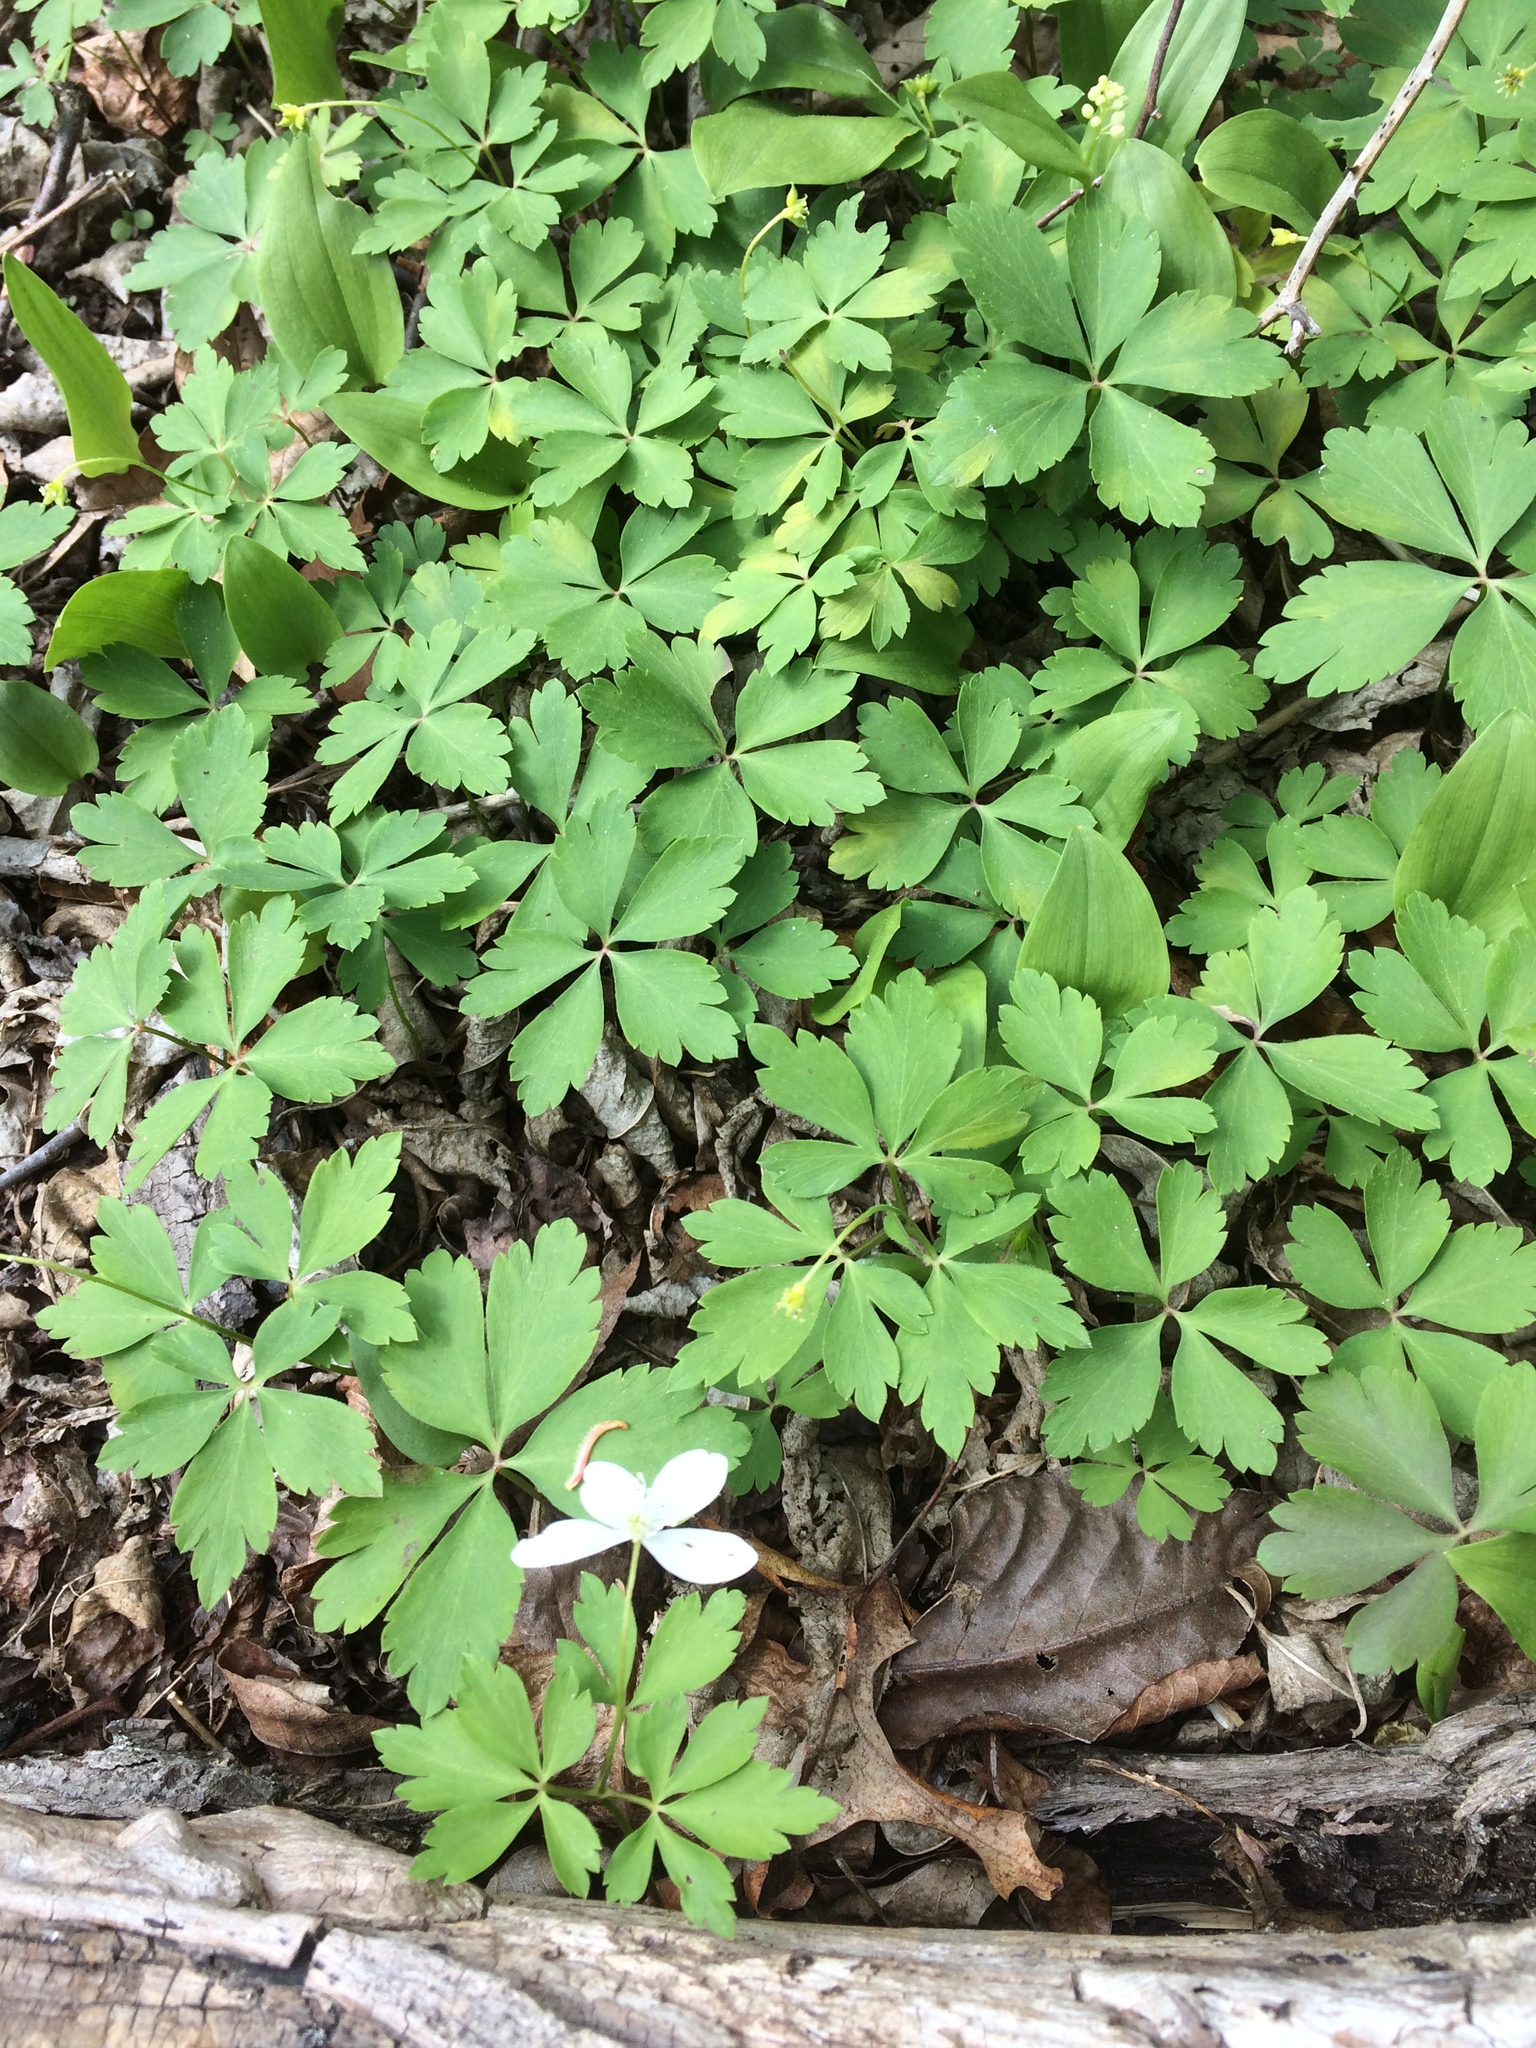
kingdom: Plantae
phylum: Tracheophyta
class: Magnoliopsida
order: Ranunculales
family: Ranunculaceae
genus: Anemone
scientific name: Anemone quinquefolia
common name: Wood anemone
